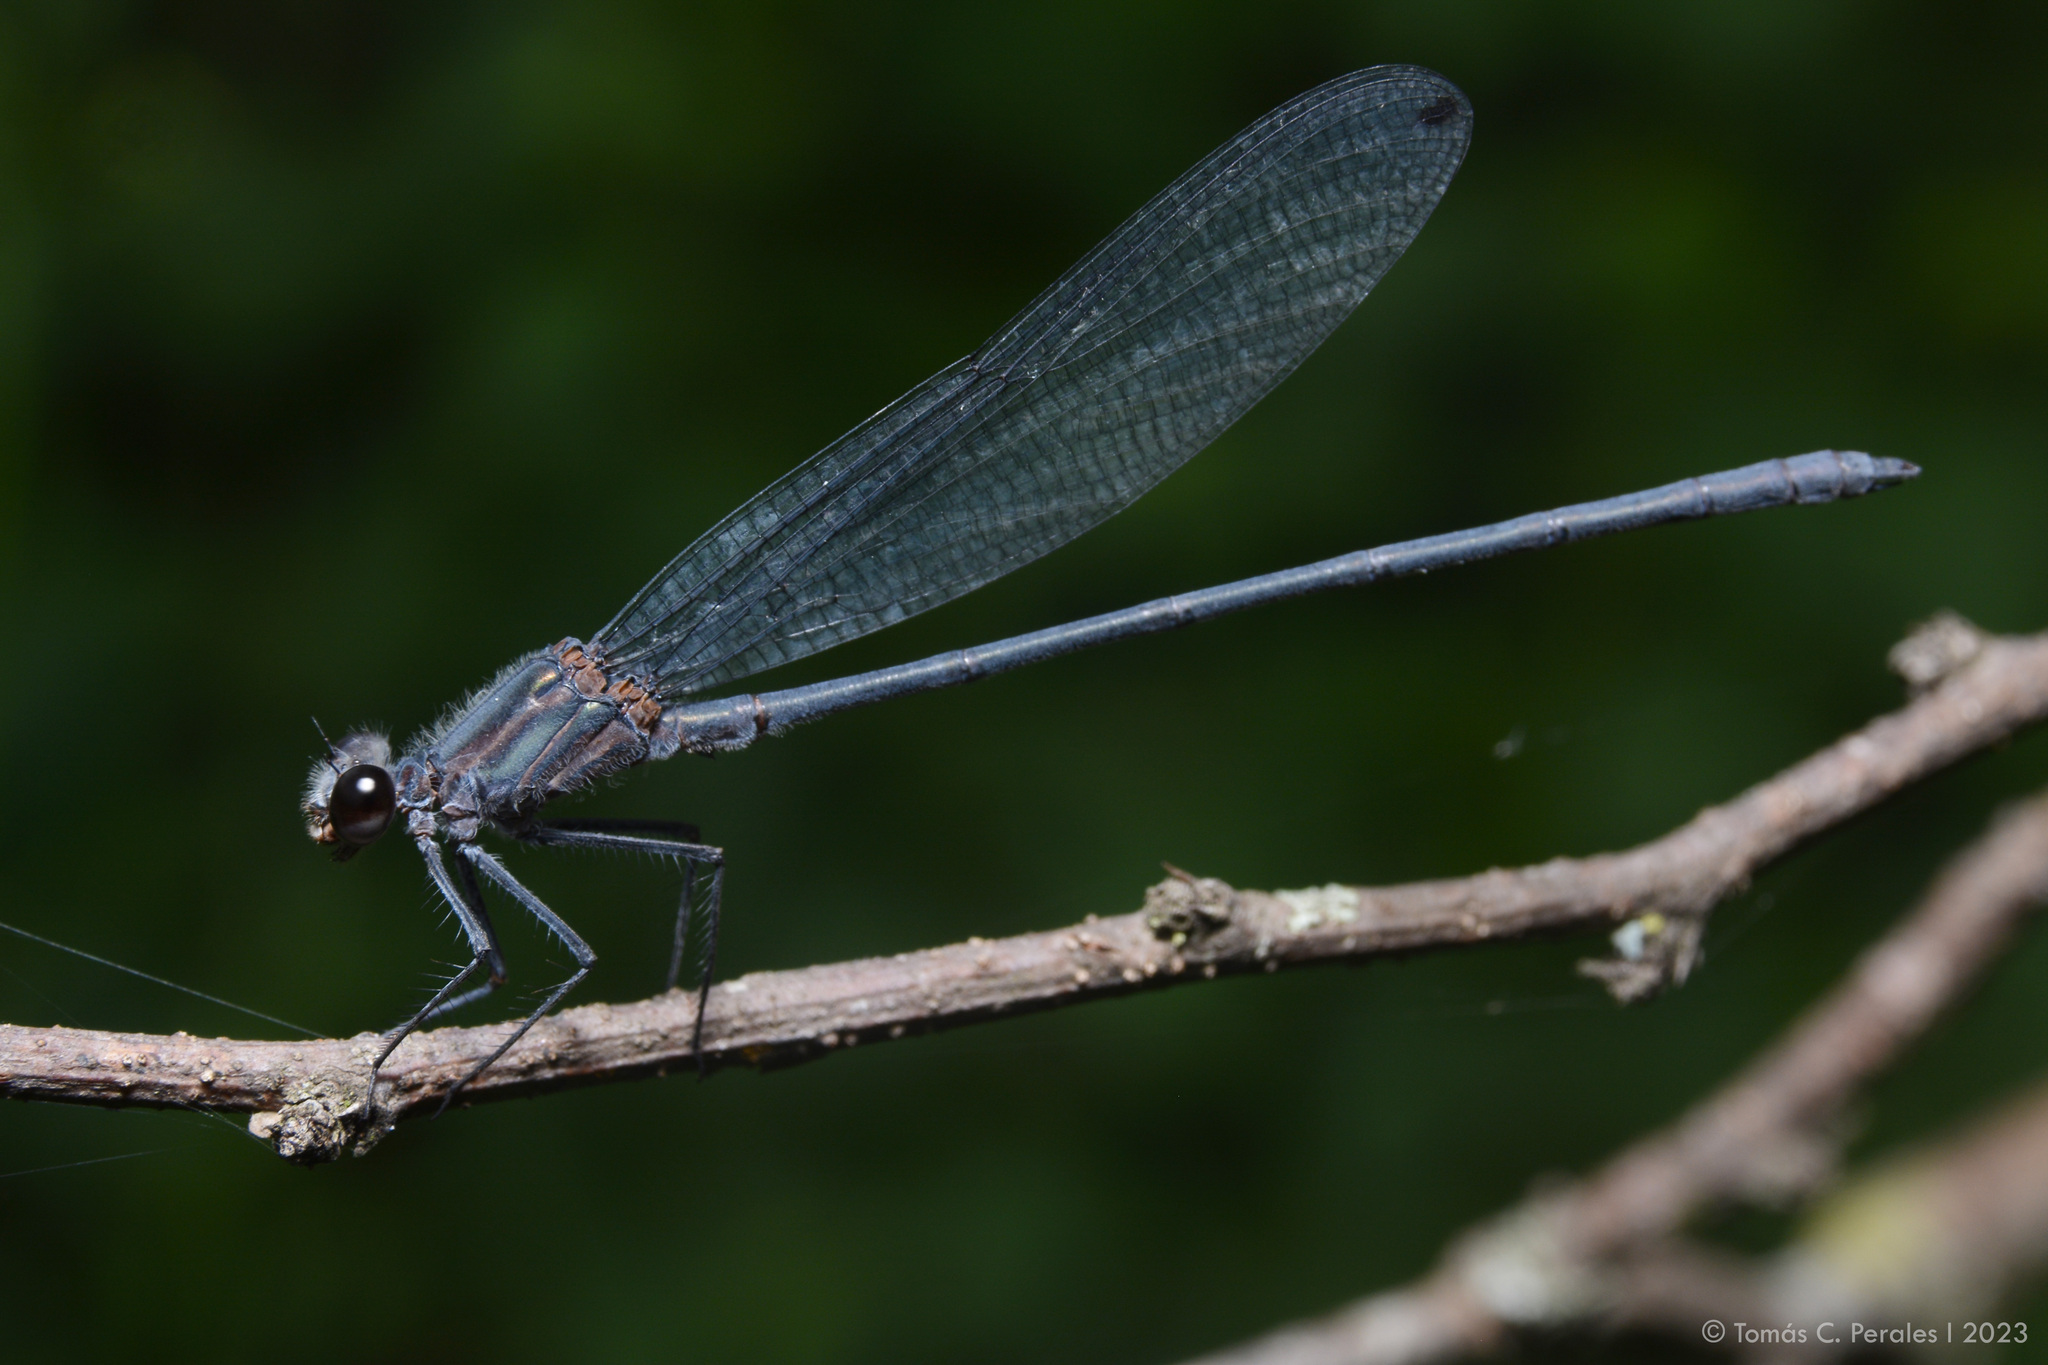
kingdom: Animalia
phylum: Arthropoda
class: Insecta
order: Odonata
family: Calopterygidae
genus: Mnesarete
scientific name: Mnesarete grisea
